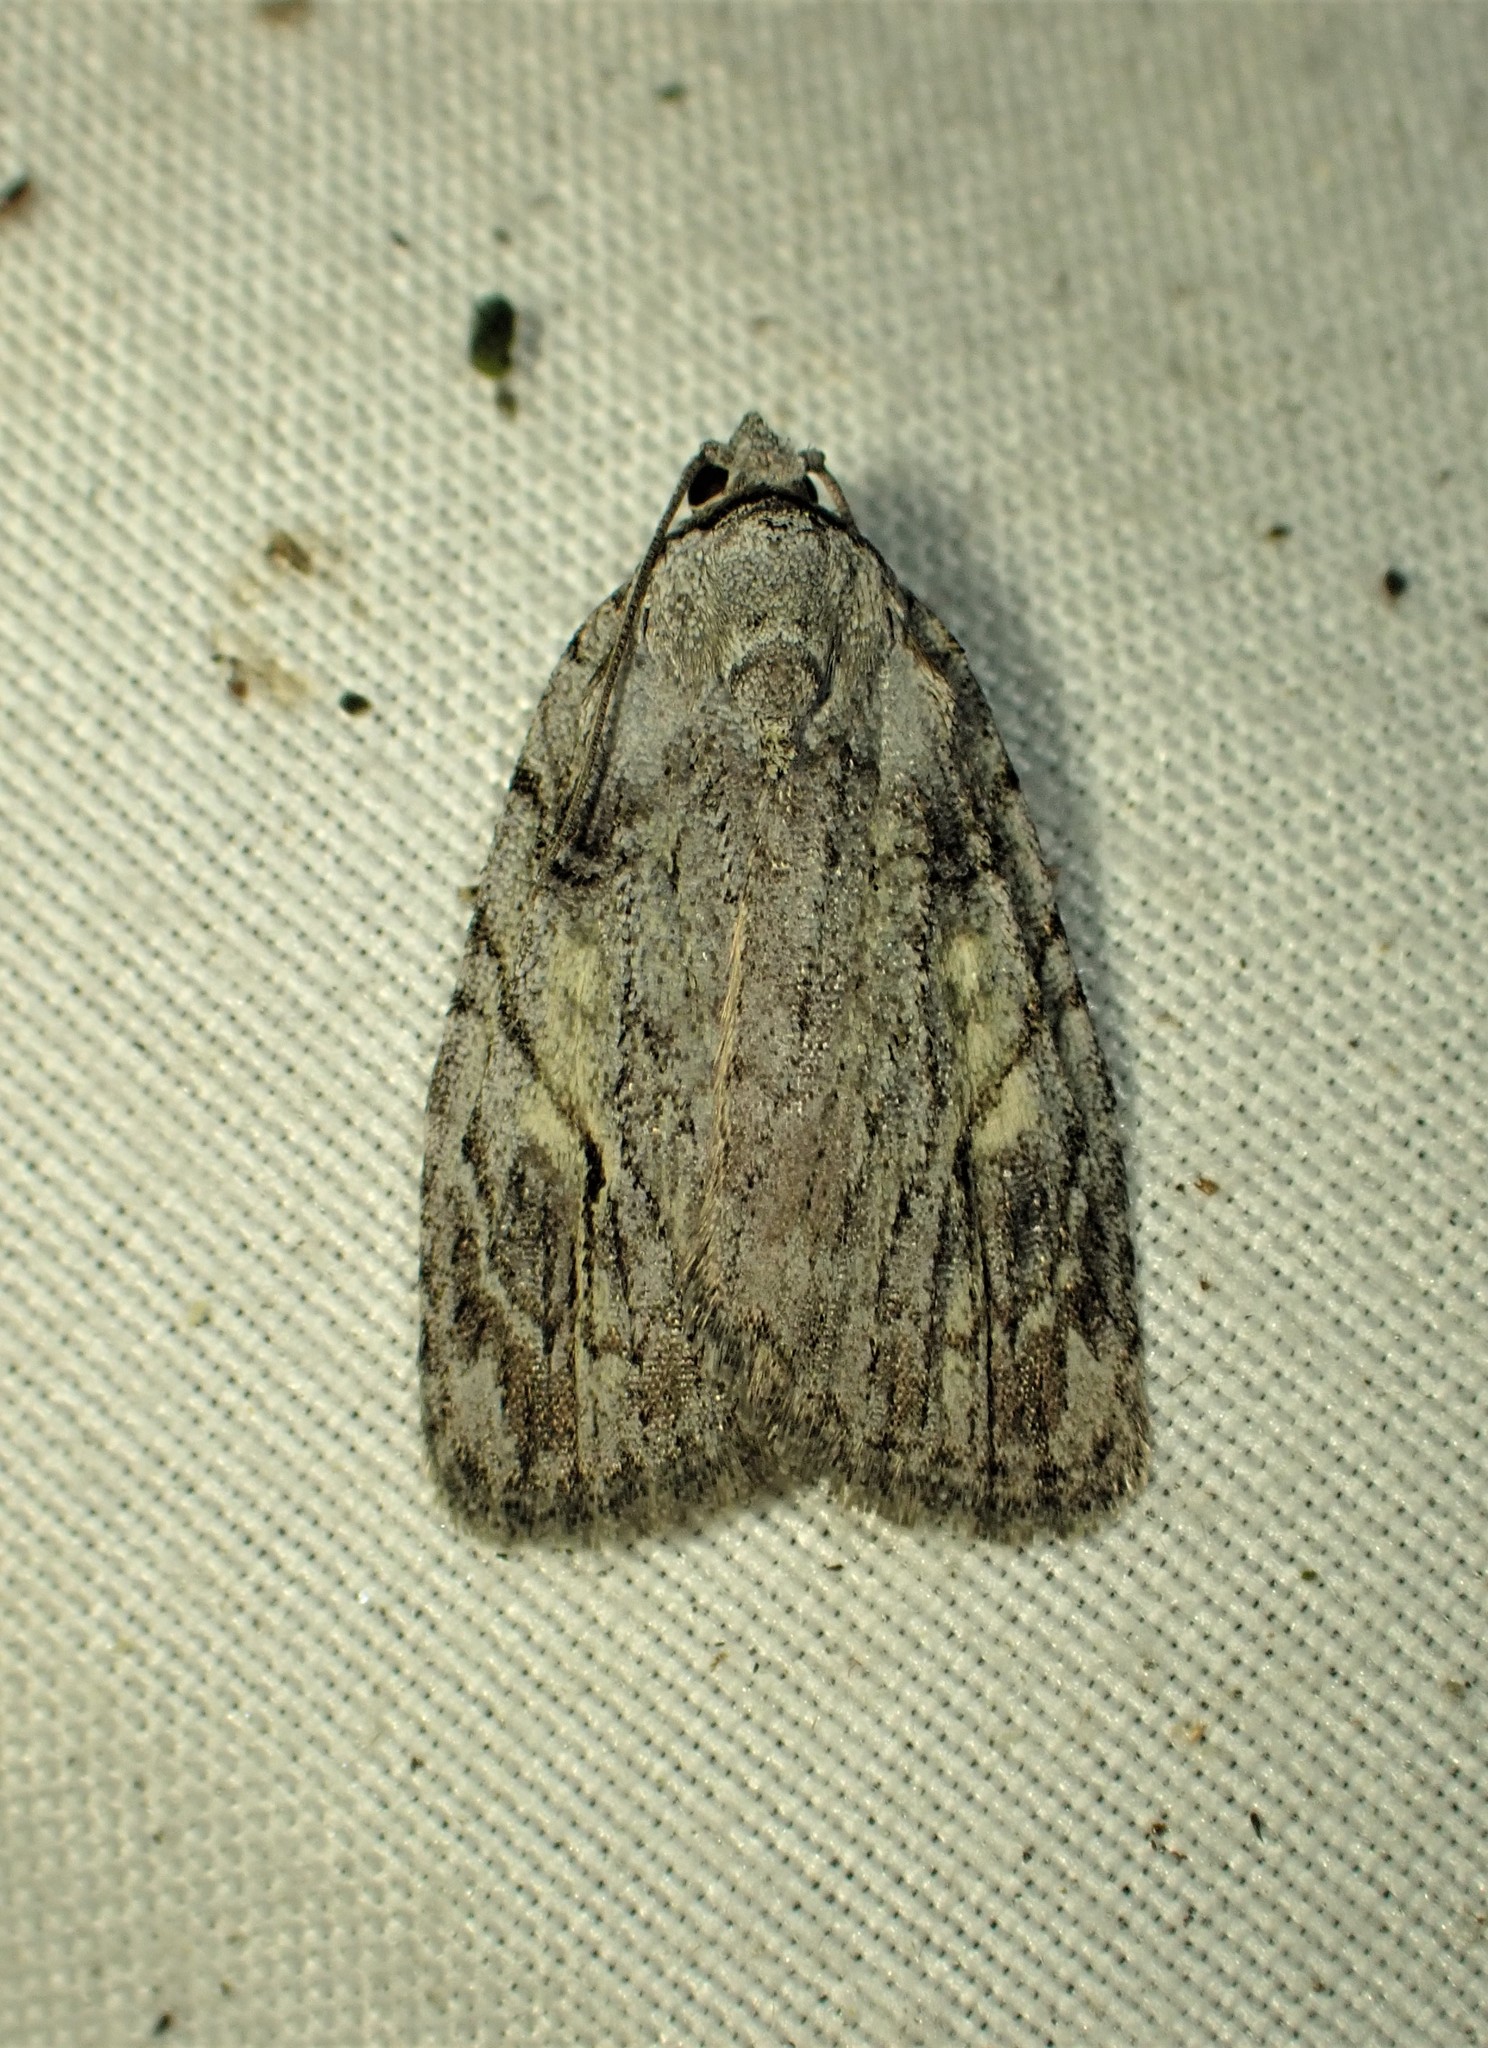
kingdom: Animalia
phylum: Arthropoda
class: Insecta
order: Lepidoptera
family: Noctuidae
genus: Balsa
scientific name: Balsa labecula
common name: White-blotched balsa moth
